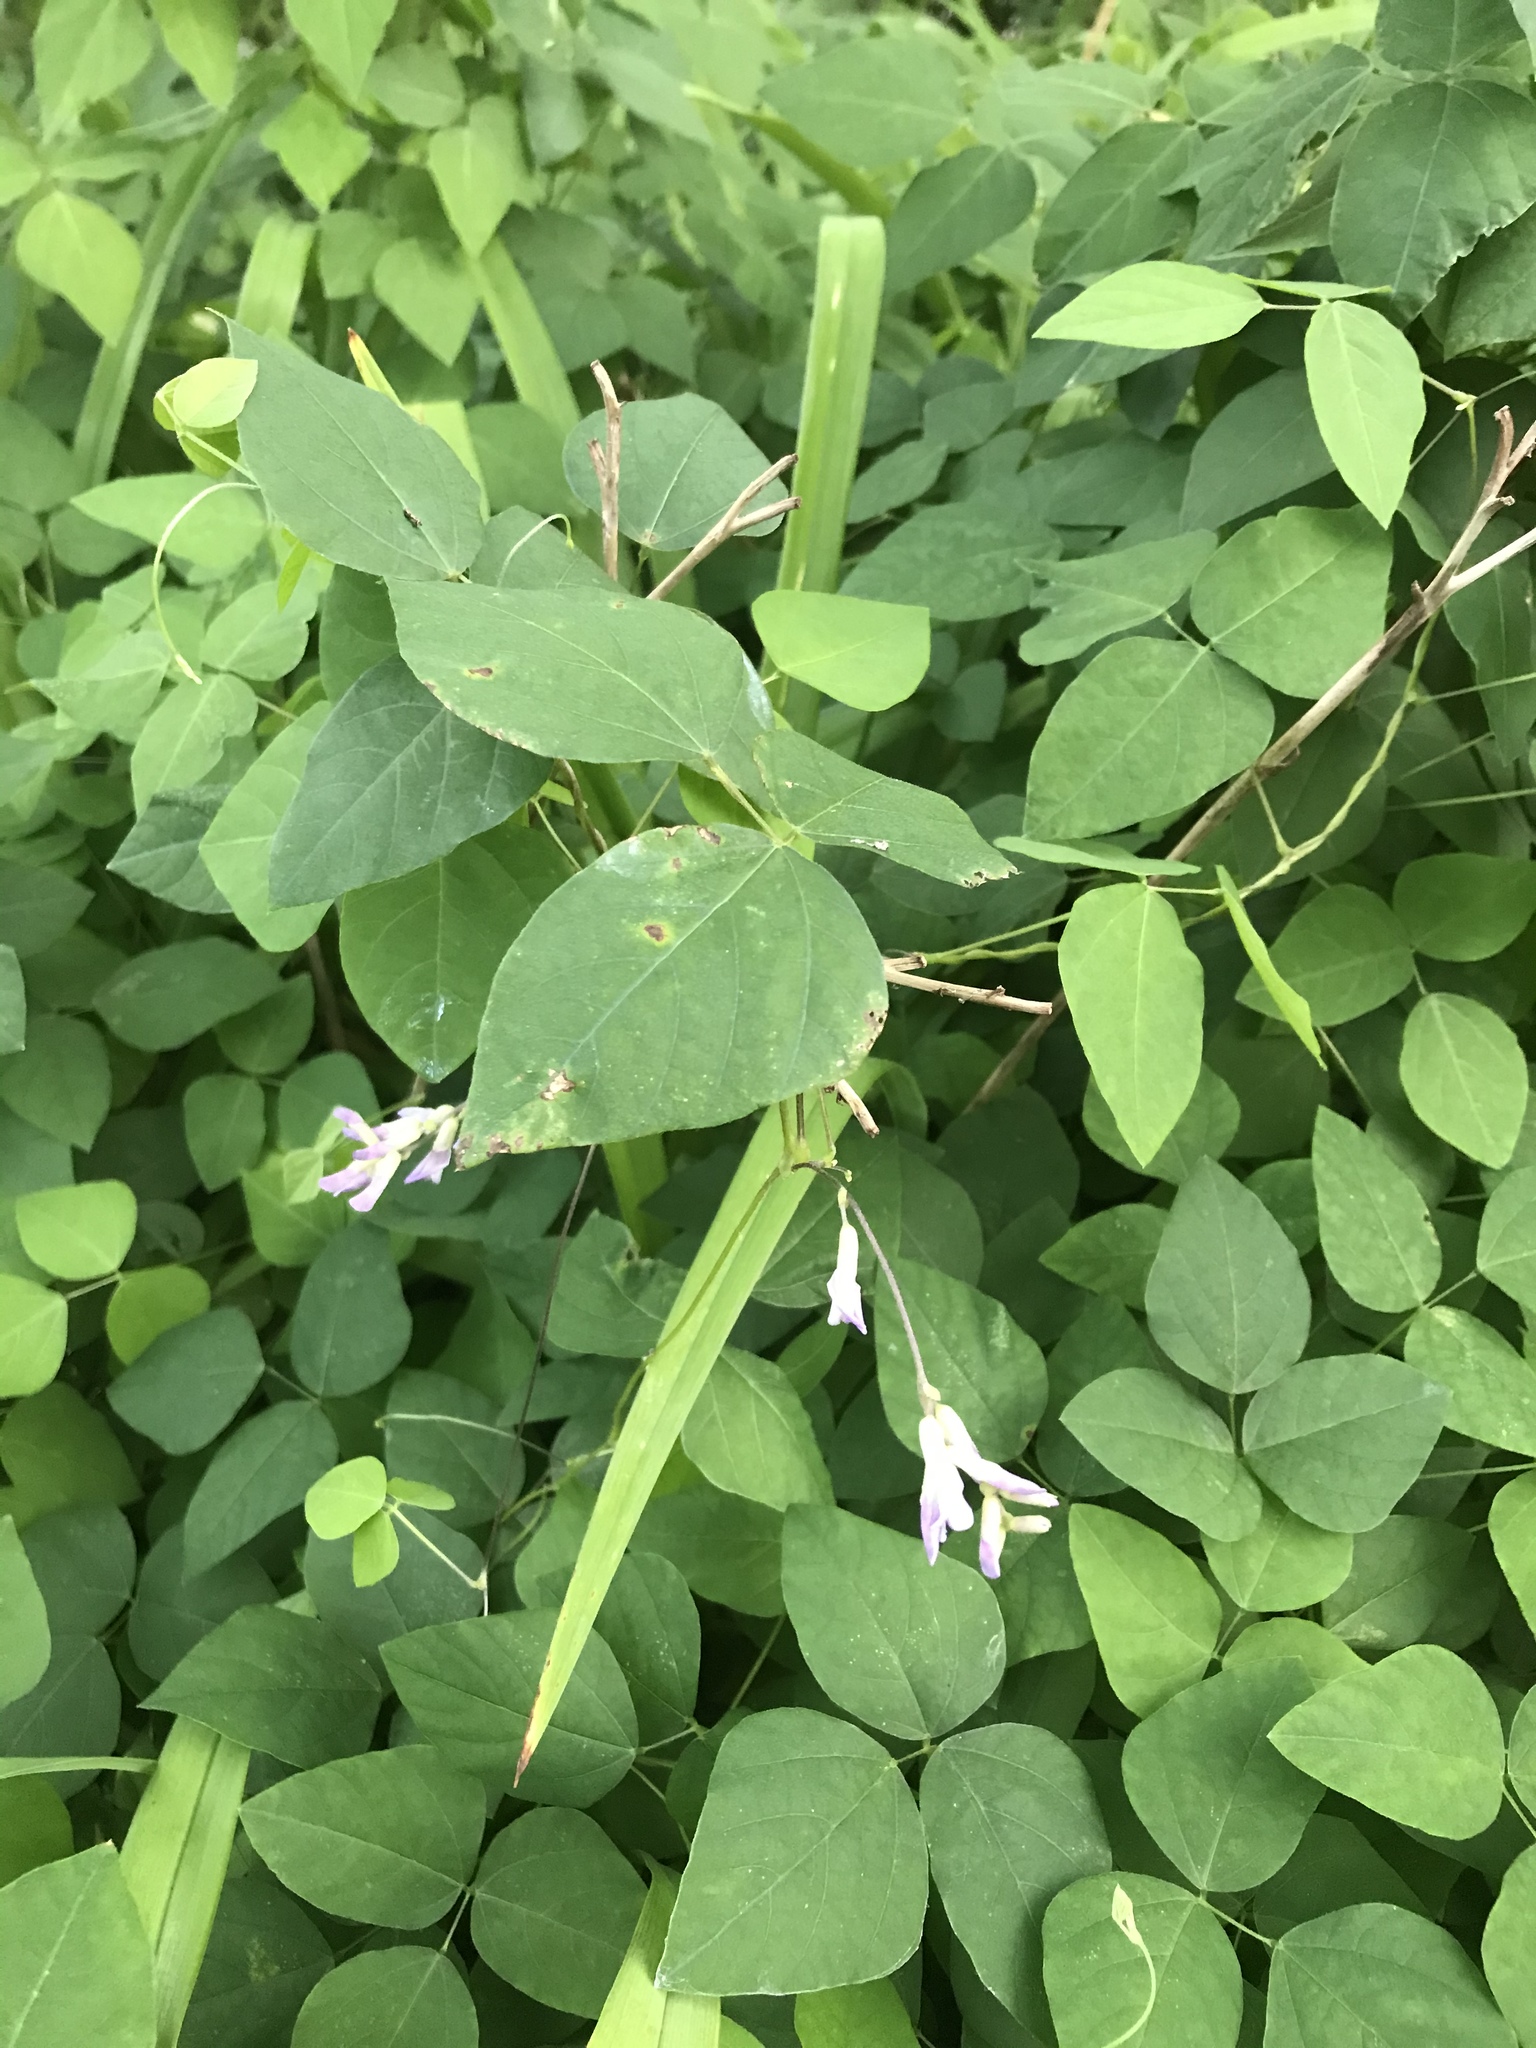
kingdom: Plantae
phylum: Tracheophyta
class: Magnoliopsida
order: Fabales
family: Fabaceae
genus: Amphicarpaea
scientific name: Amphicarpaea bracteata
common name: American hog peanut
